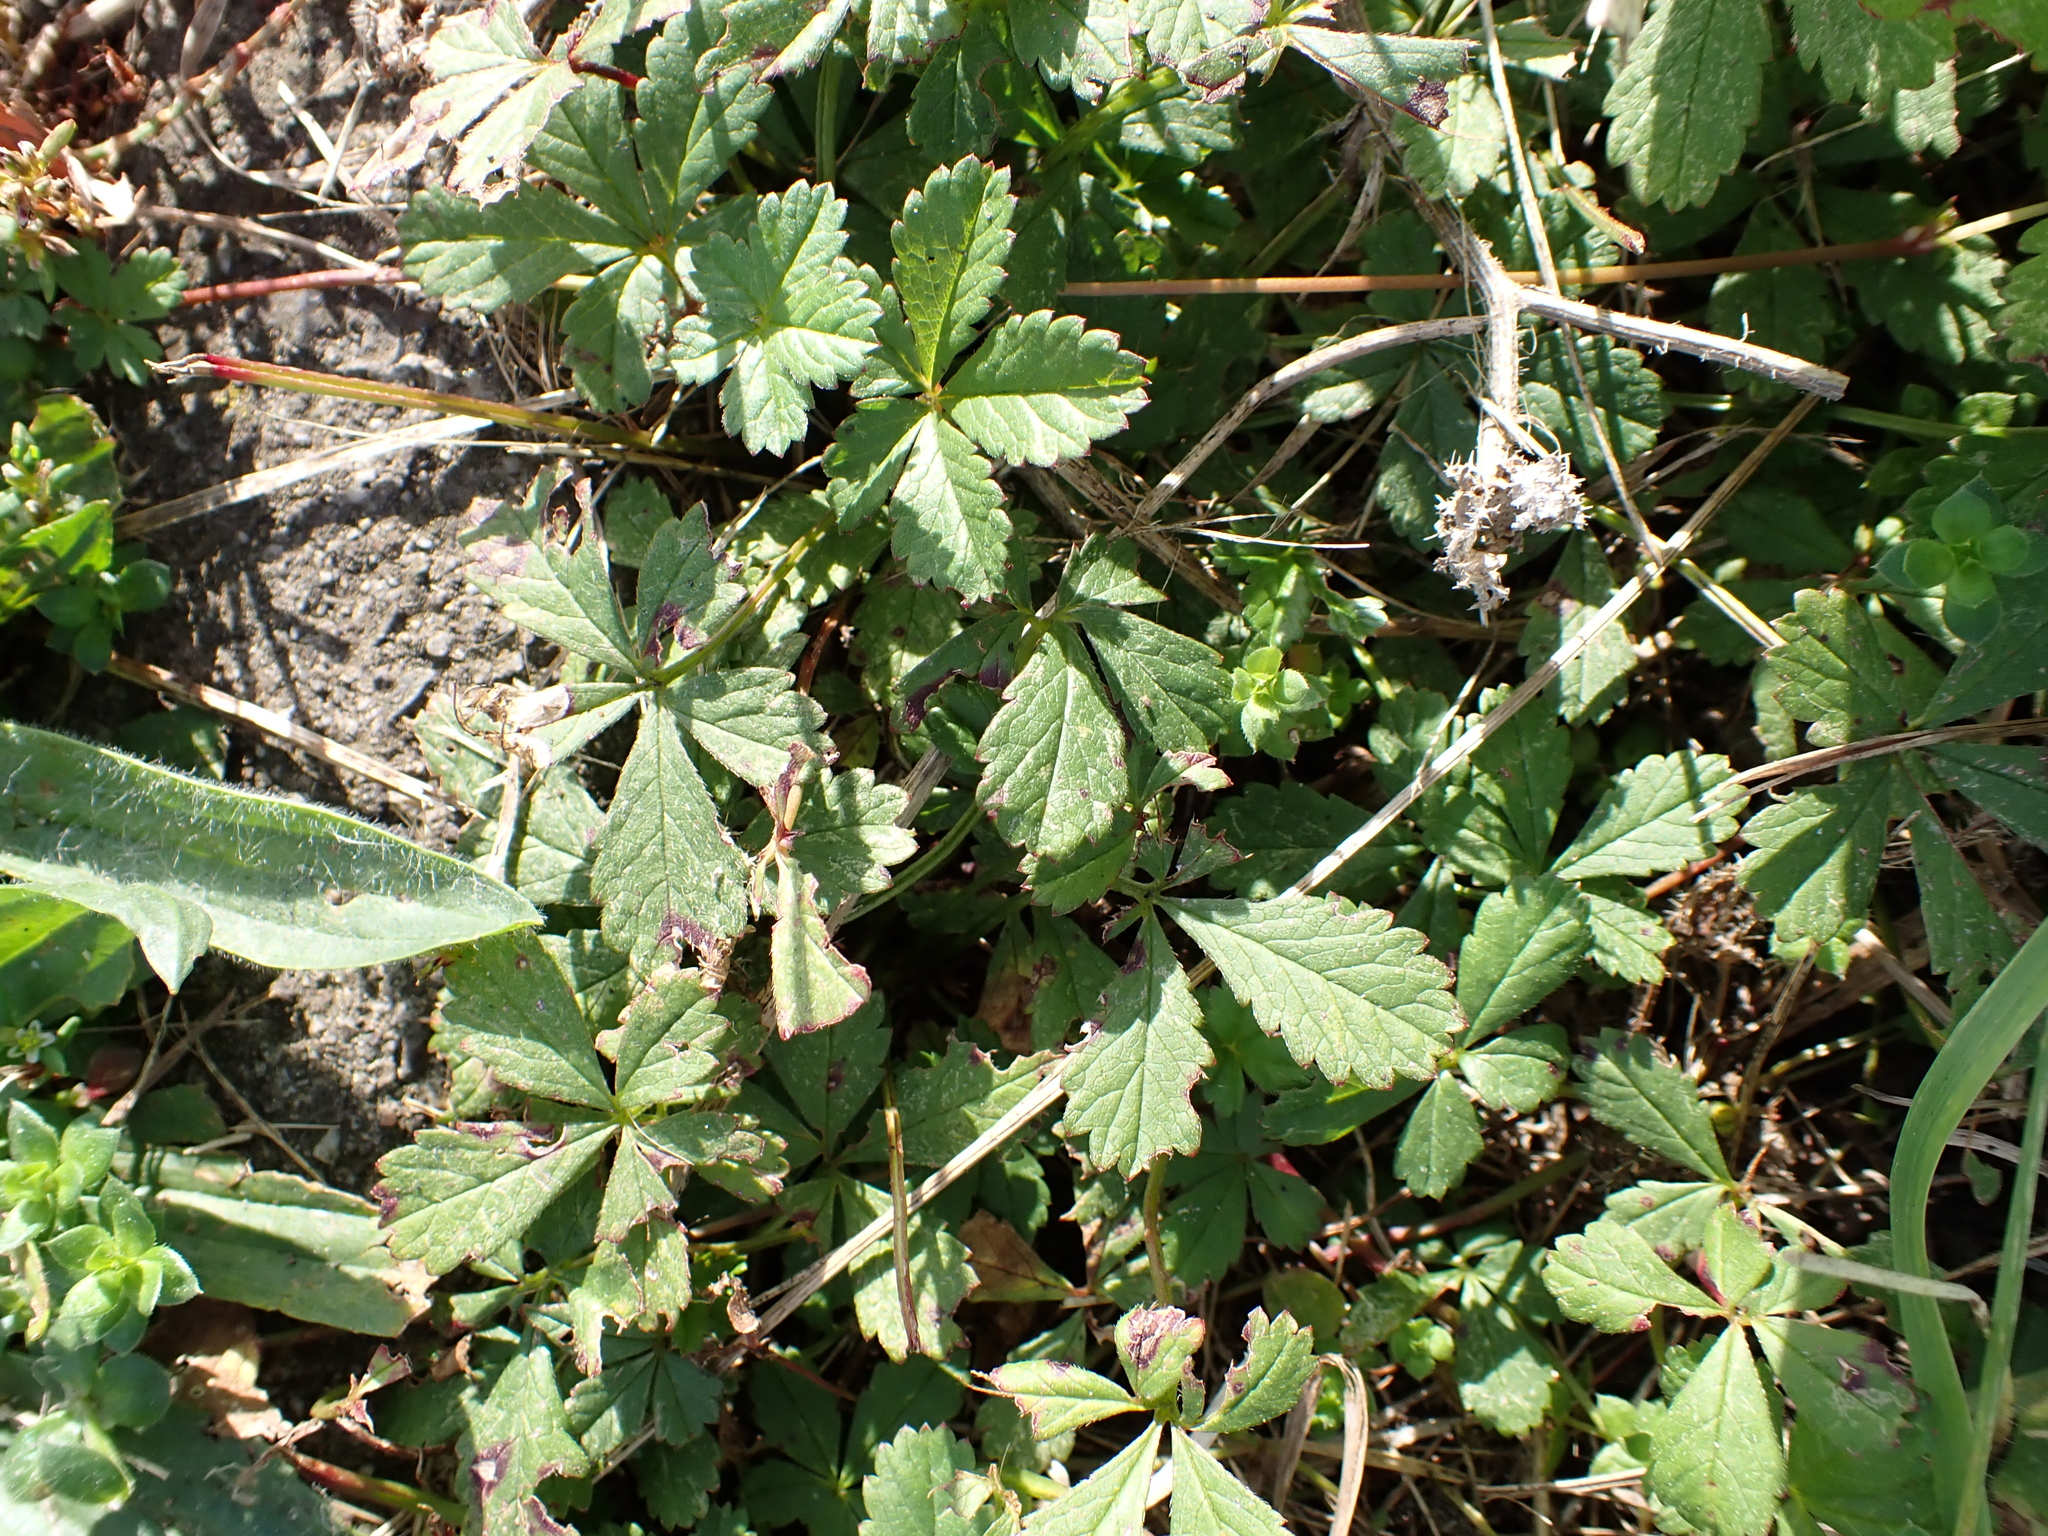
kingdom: Plantae
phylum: Tracheophyta
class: Magnoliopsida
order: Rosales
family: Rosaceae
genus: Potentilla
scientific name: Potentilla reptans
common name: Creeping cinquefoil
